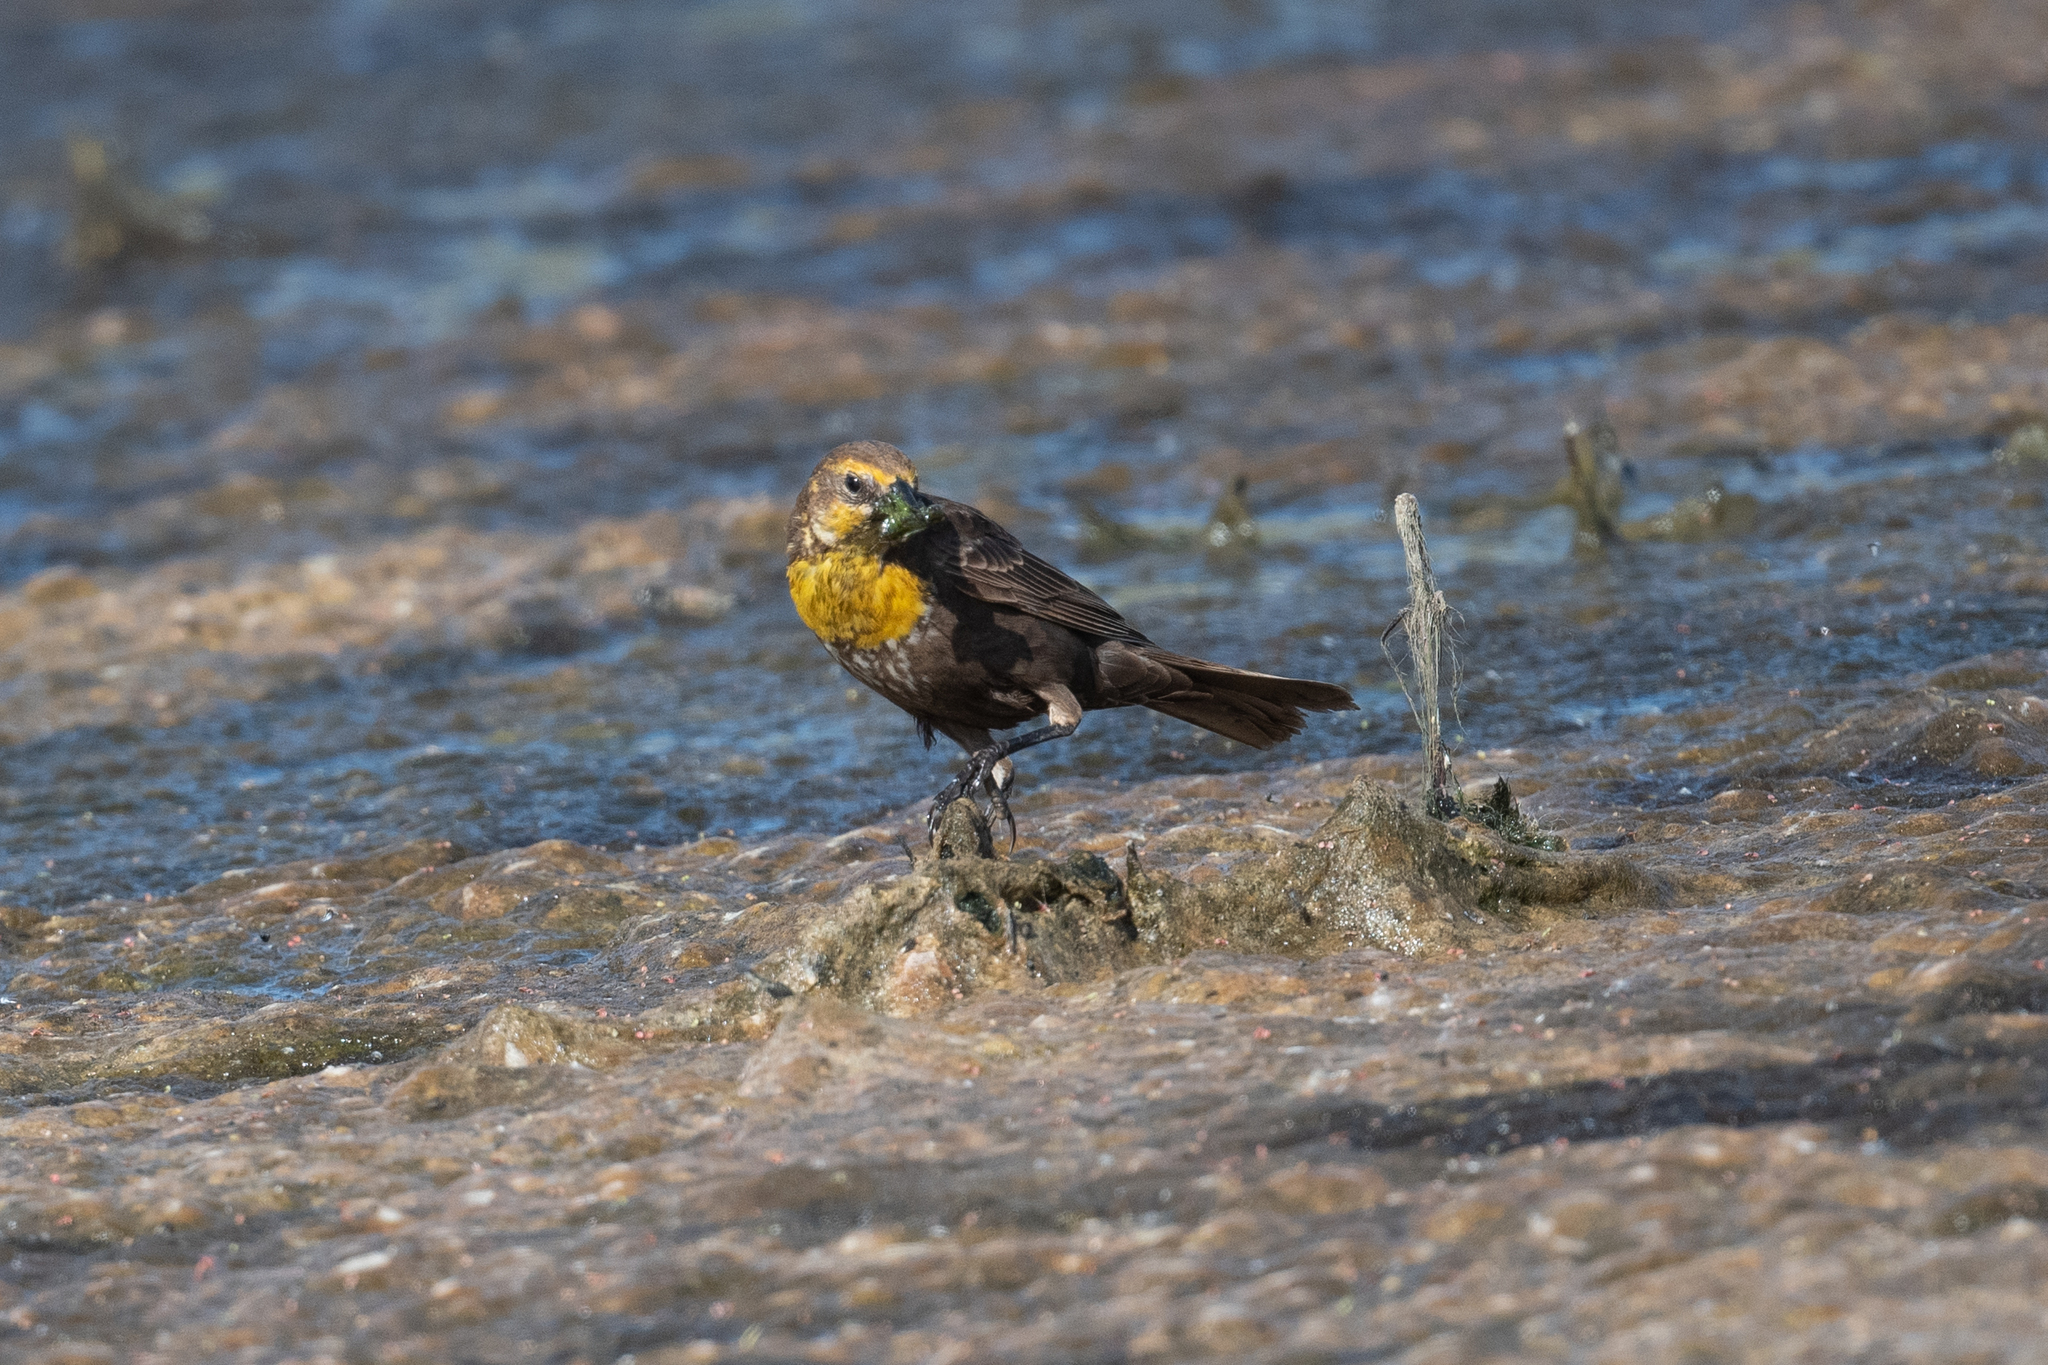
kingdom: Animalia
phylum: Chordata
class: Aves
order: Passeriformes
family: Icteridae
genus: Xanthocephalus
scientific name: Xanthocephalus xanthocephalus
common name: Yellow-headed blackbird
